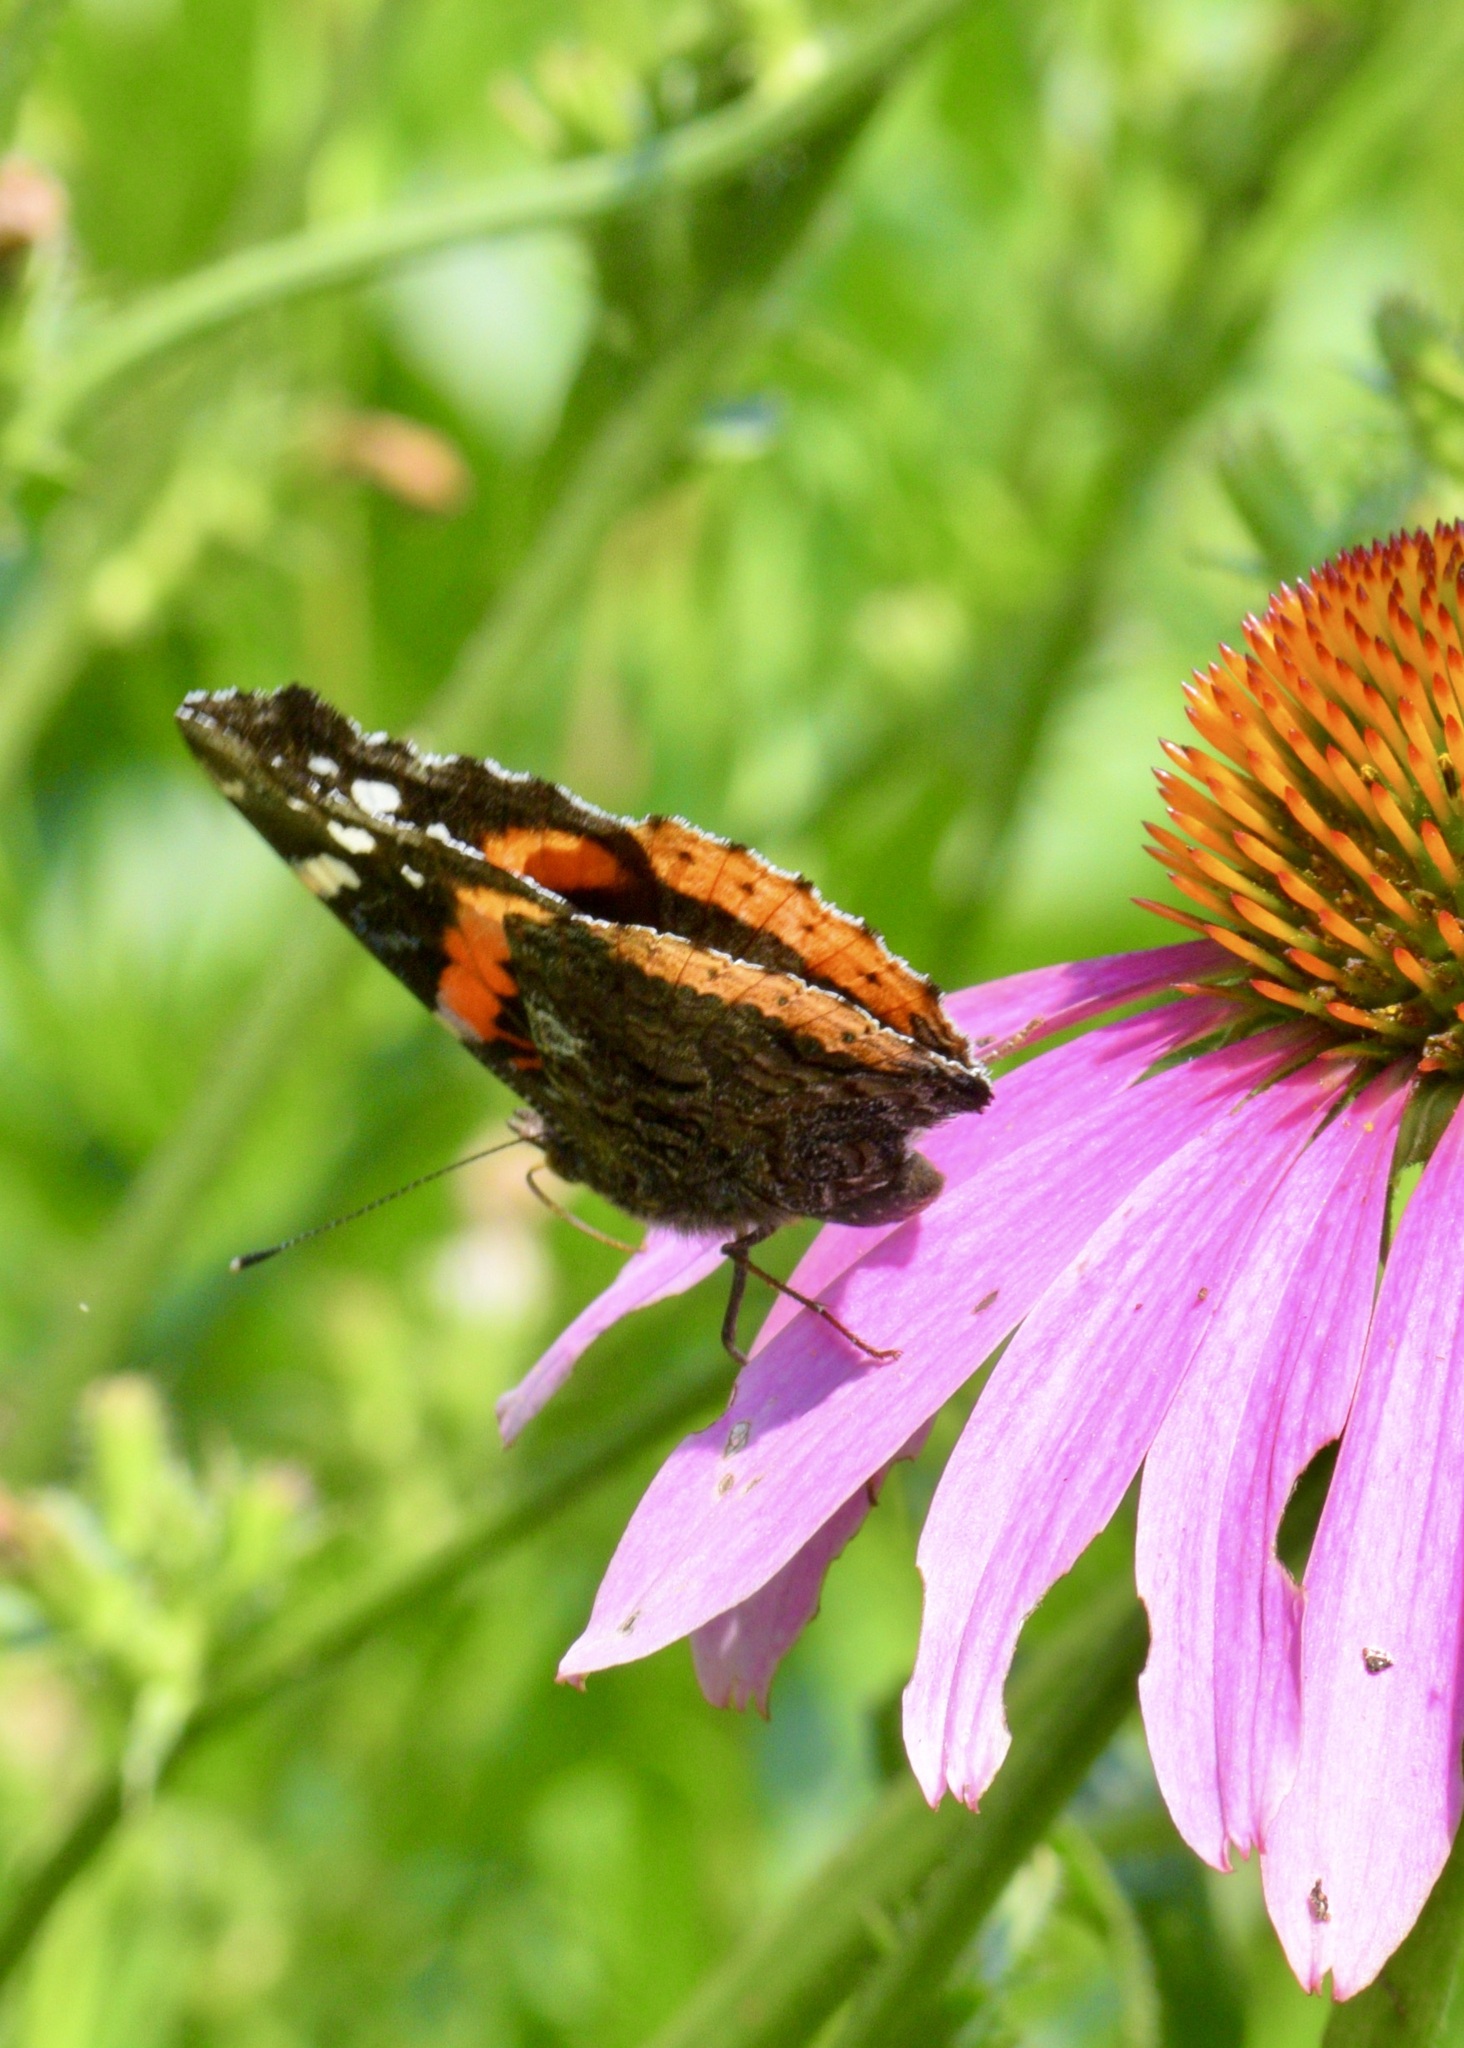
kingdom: Animalia
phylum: Arthropoda
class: Insecta
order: Lepidoptera
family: Nymphalidae
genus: Vanessa
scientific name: Vanessa atalanta
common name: Red admiral
